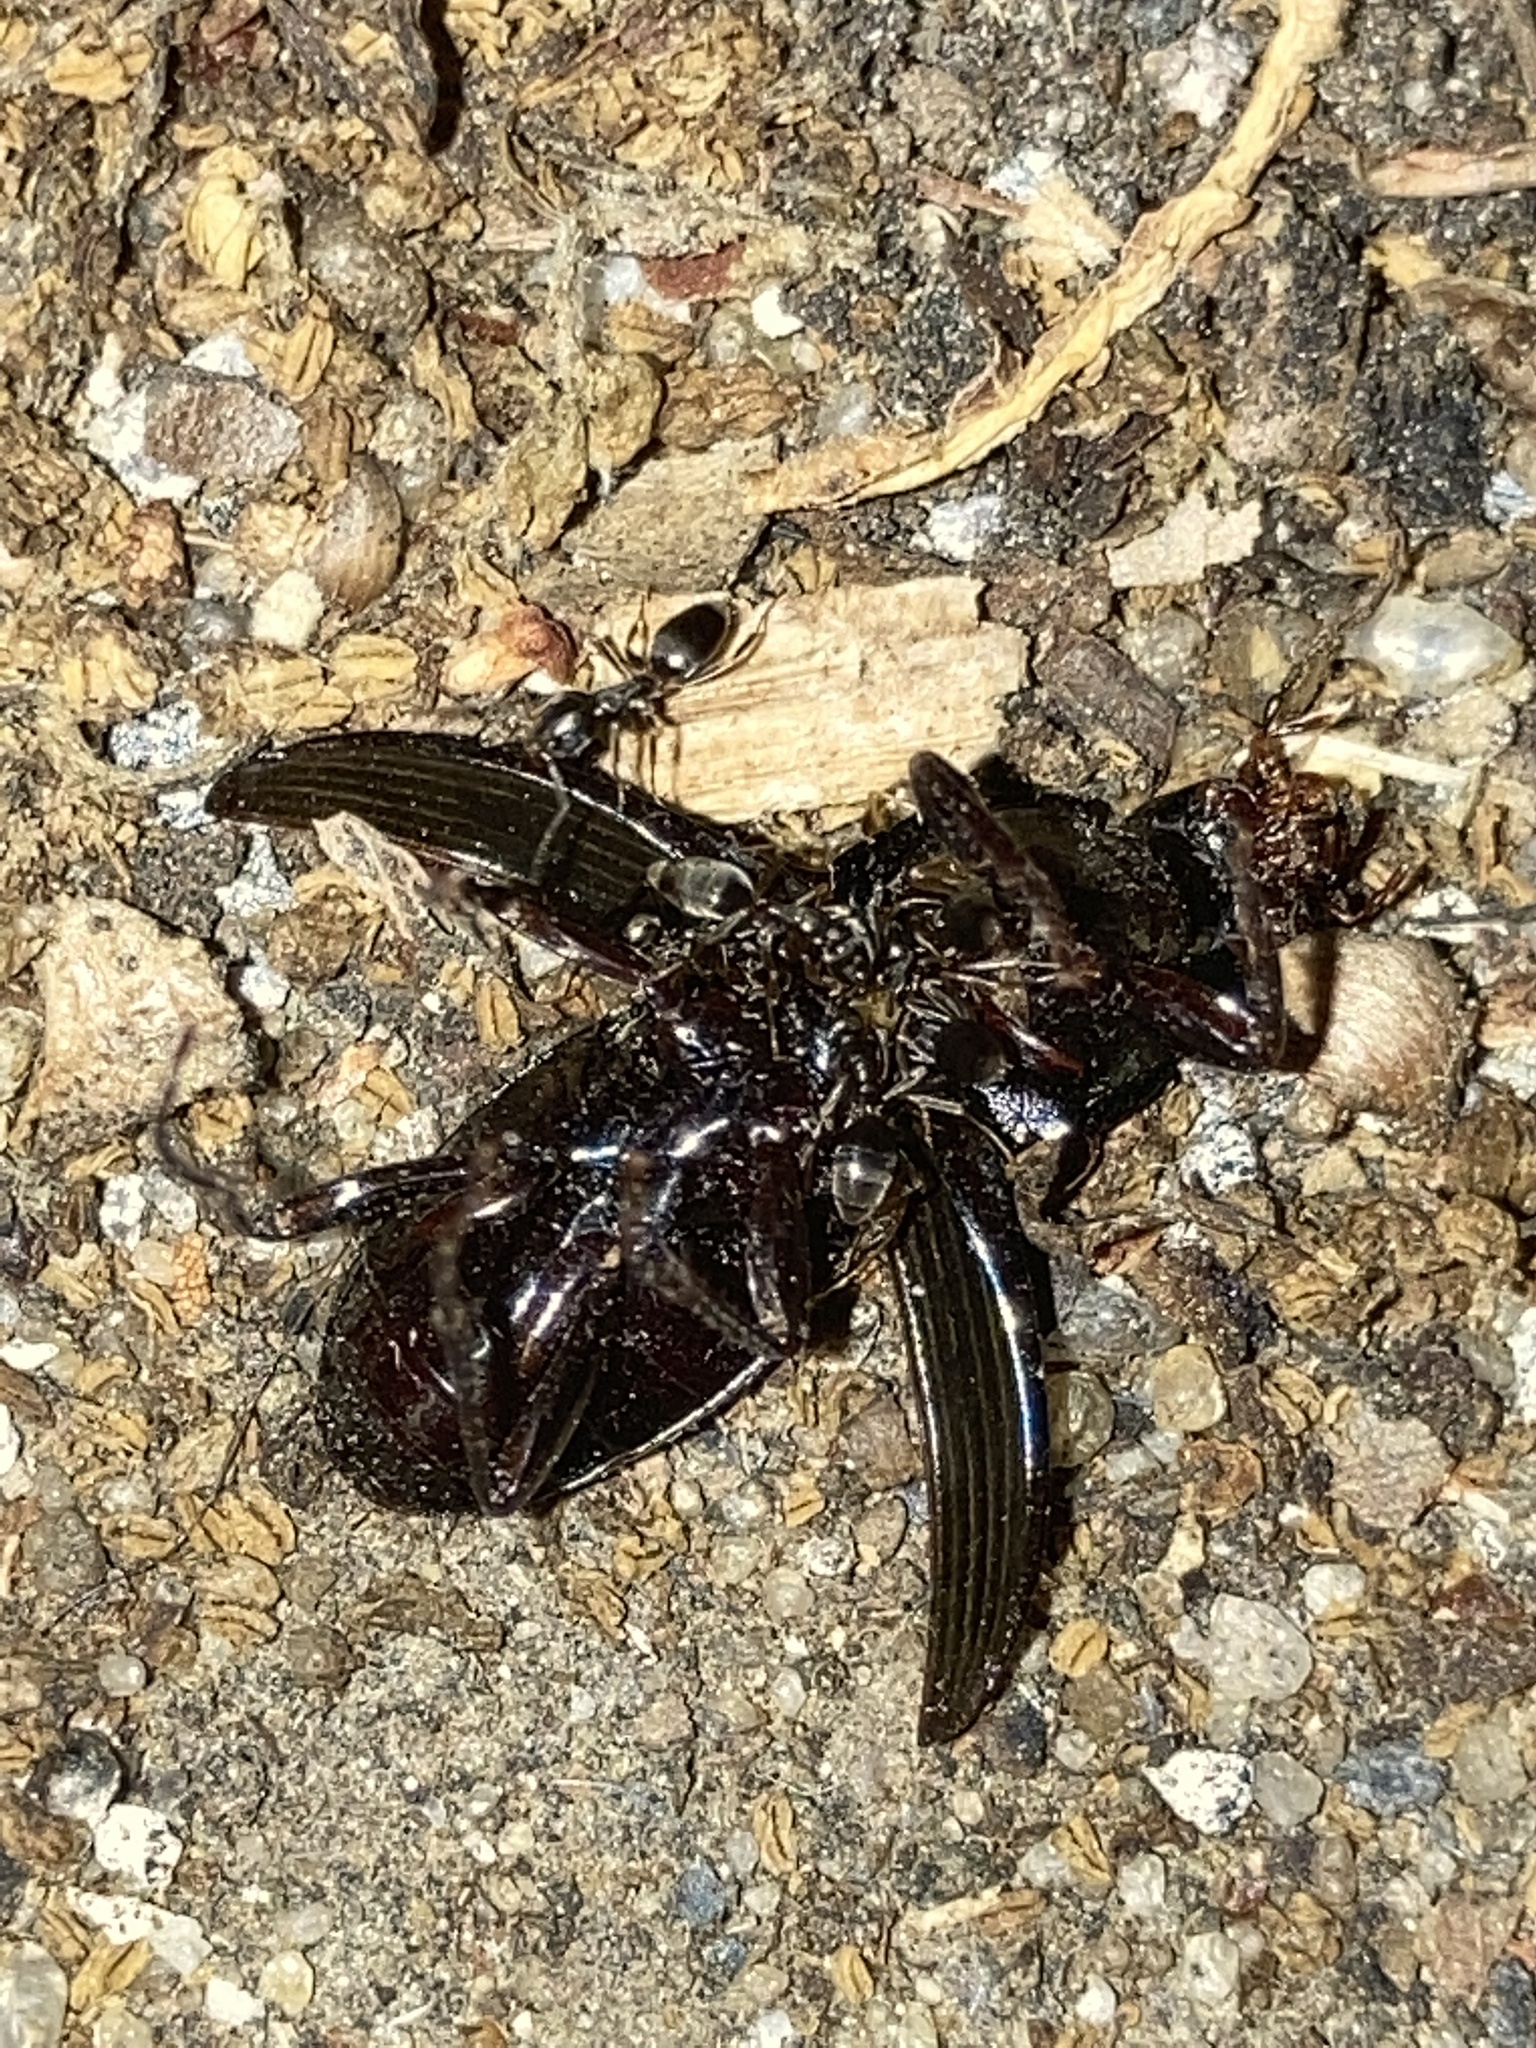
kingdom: Animalia
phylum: Arthropoda
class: Insecta
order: Hymenoptera
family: Formicidae
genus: Tapinoma
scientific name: Tapinoma sessile
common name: Odorous house ant
